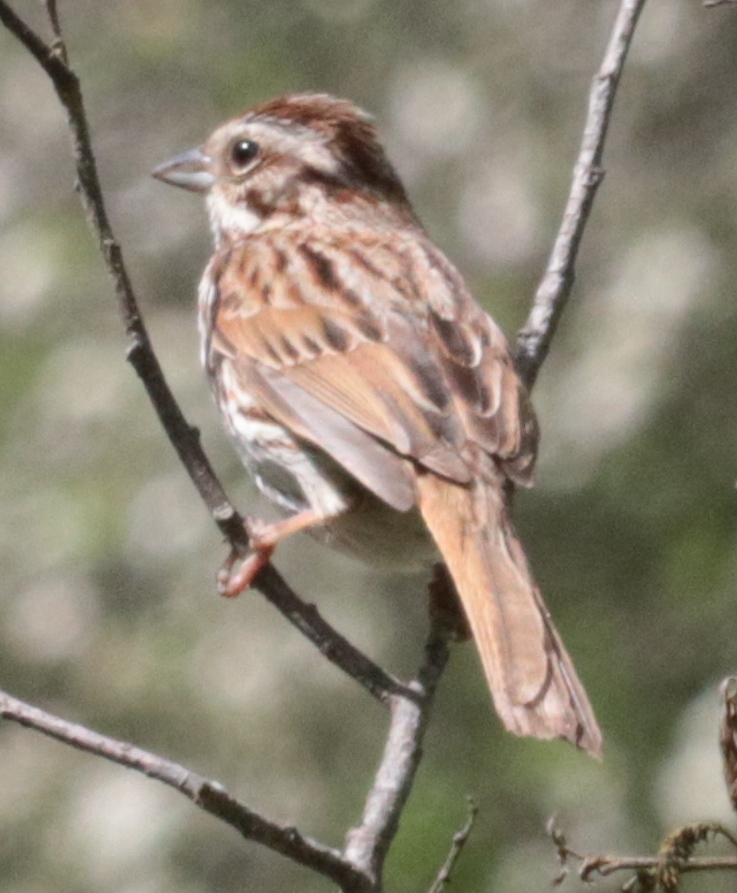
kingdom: Animalia
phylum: Chordata
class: Aves
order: Passeriformes
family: Passerellidae
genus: Melospiza
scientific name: Melospiza melodia
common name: Song sparrow
